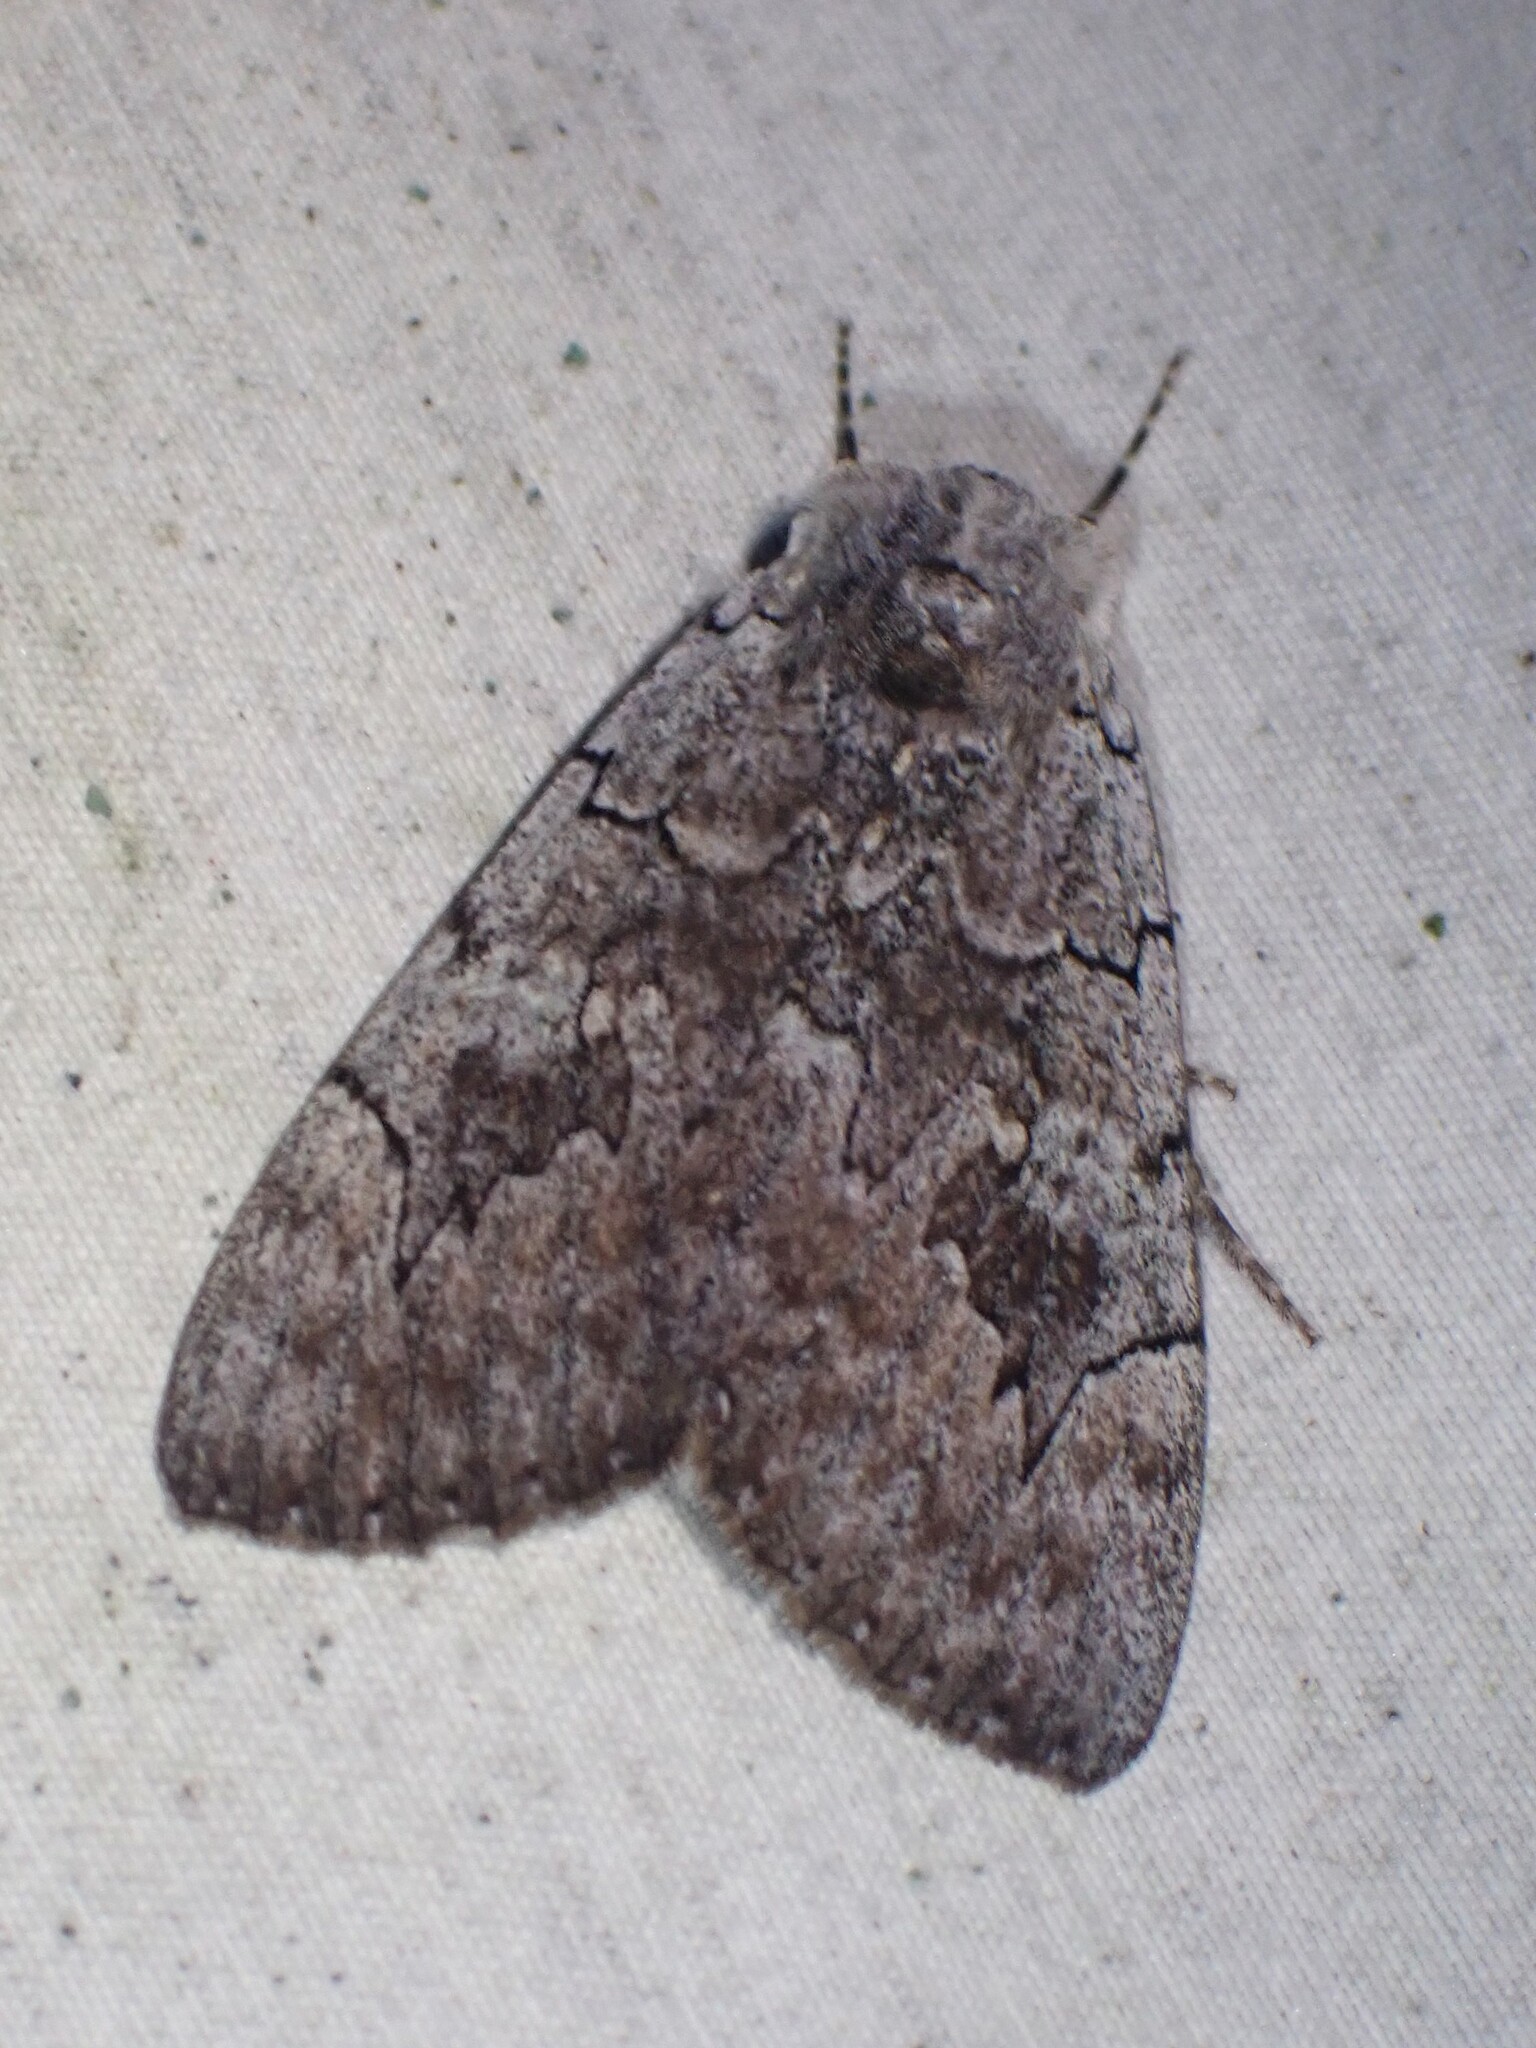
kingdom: Animalia
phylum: Arthropoda
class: Insecta
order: Lepidoptera
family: Erebidae
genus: Catocala
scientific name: Catocala concumbens
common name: Pink underwing
